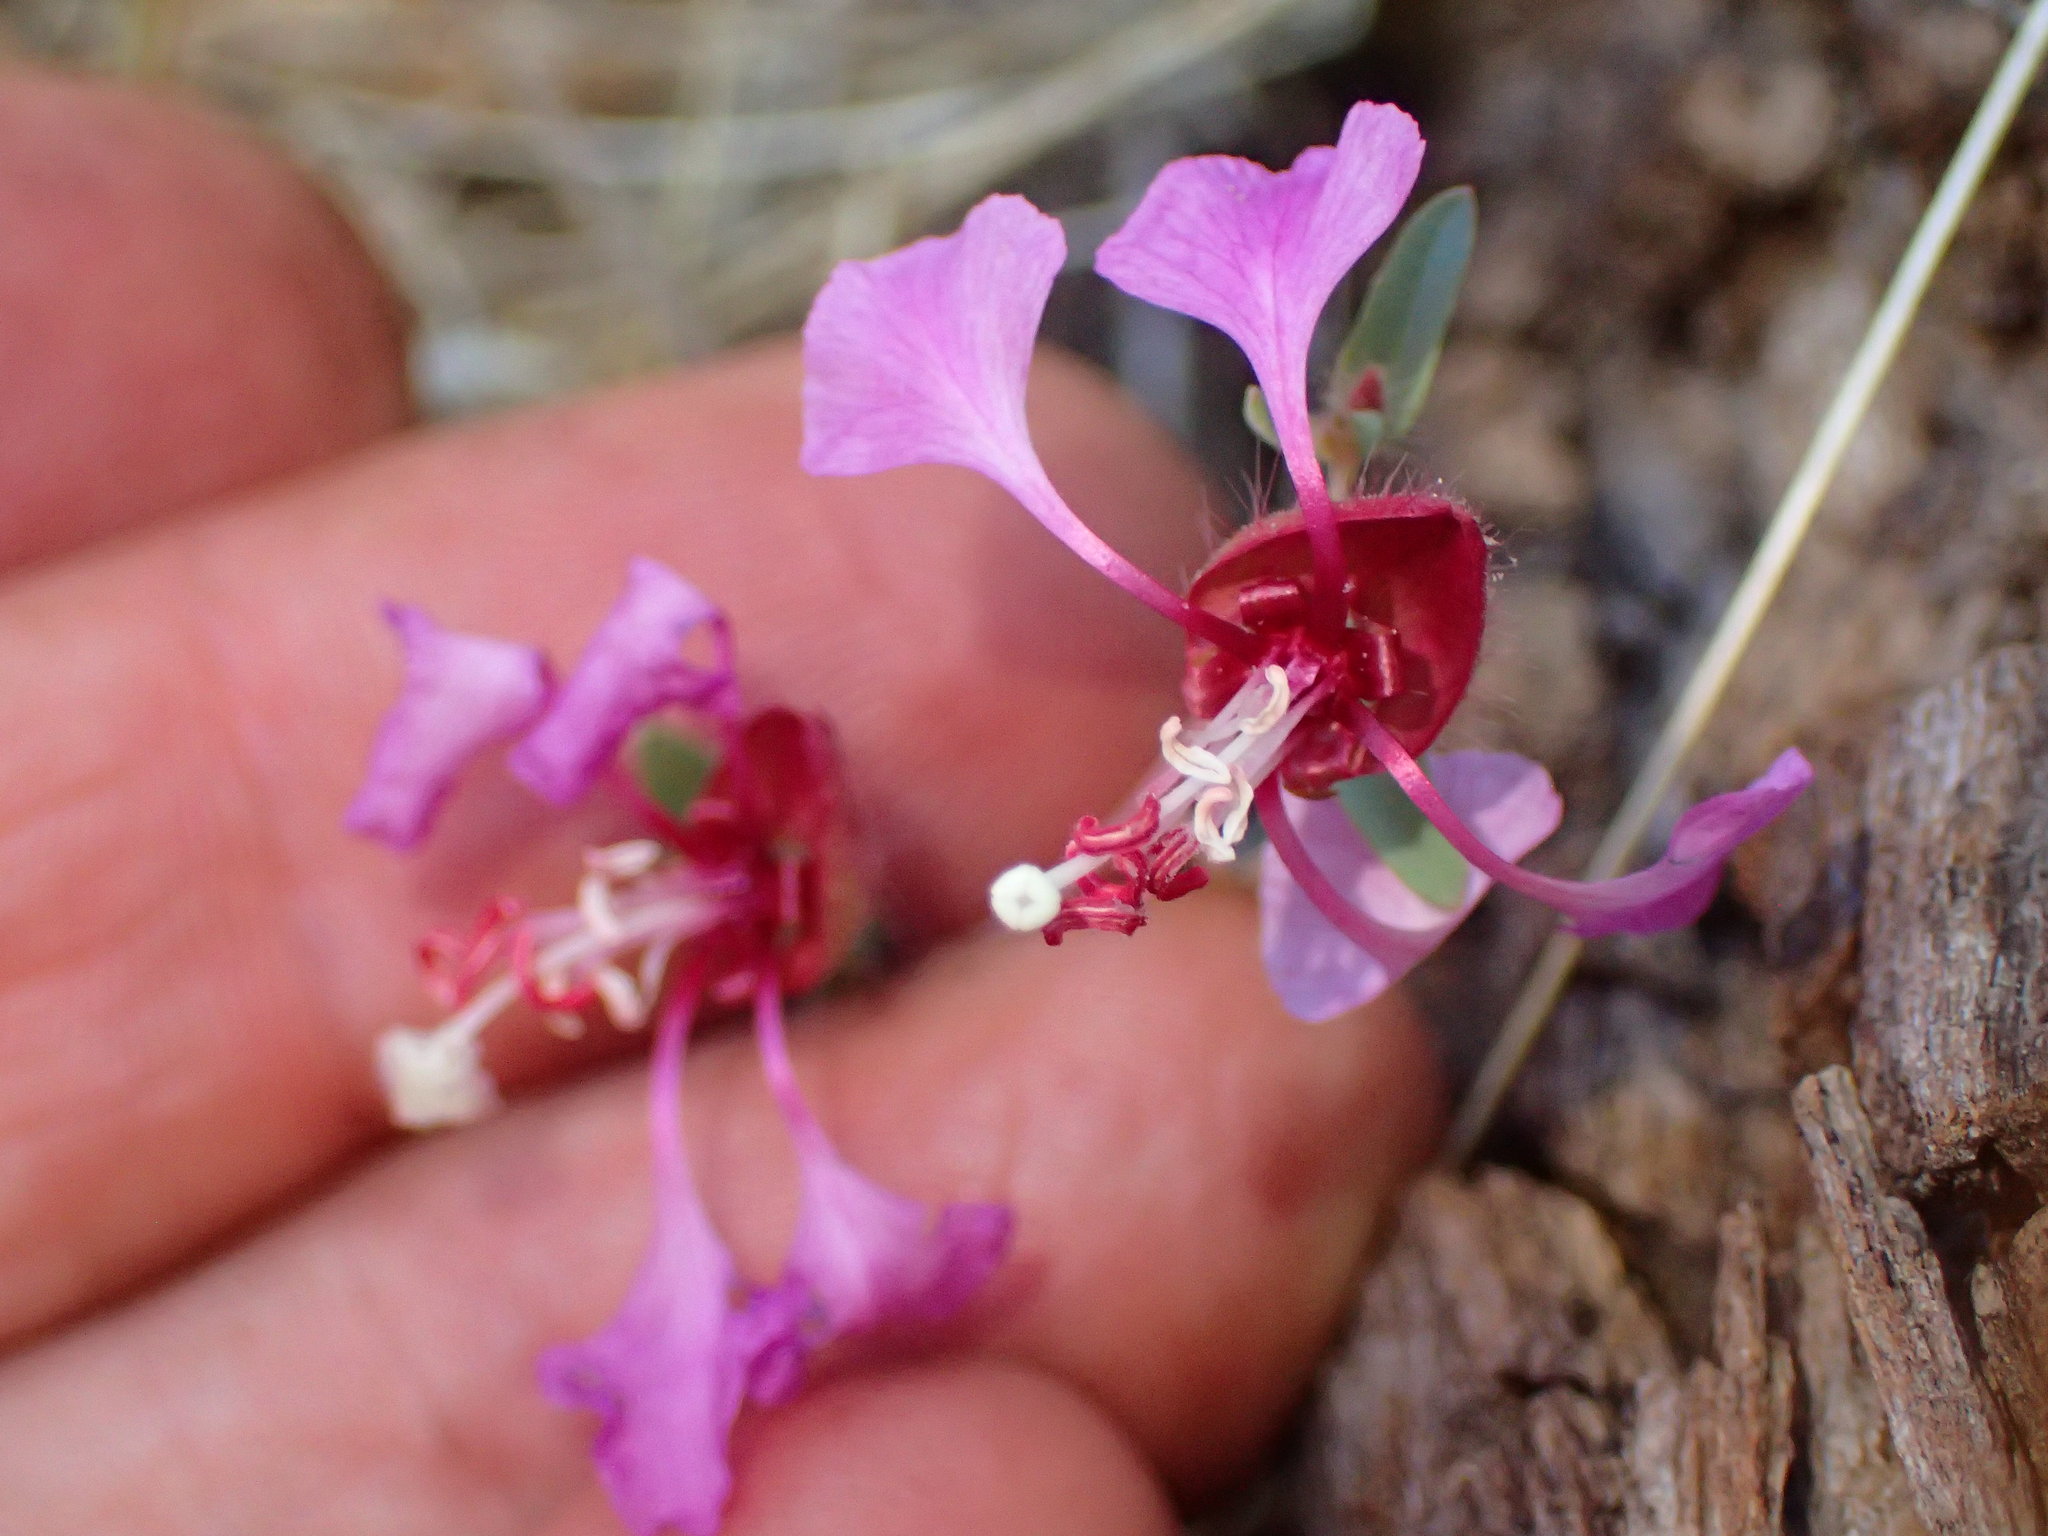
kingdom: Plantae
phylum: Tracheophyta
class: Magnoliopsida
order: Myrtales
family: Onagraceae
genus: Clarkia
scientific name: Clarkia unguiculata
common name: Clarkia
